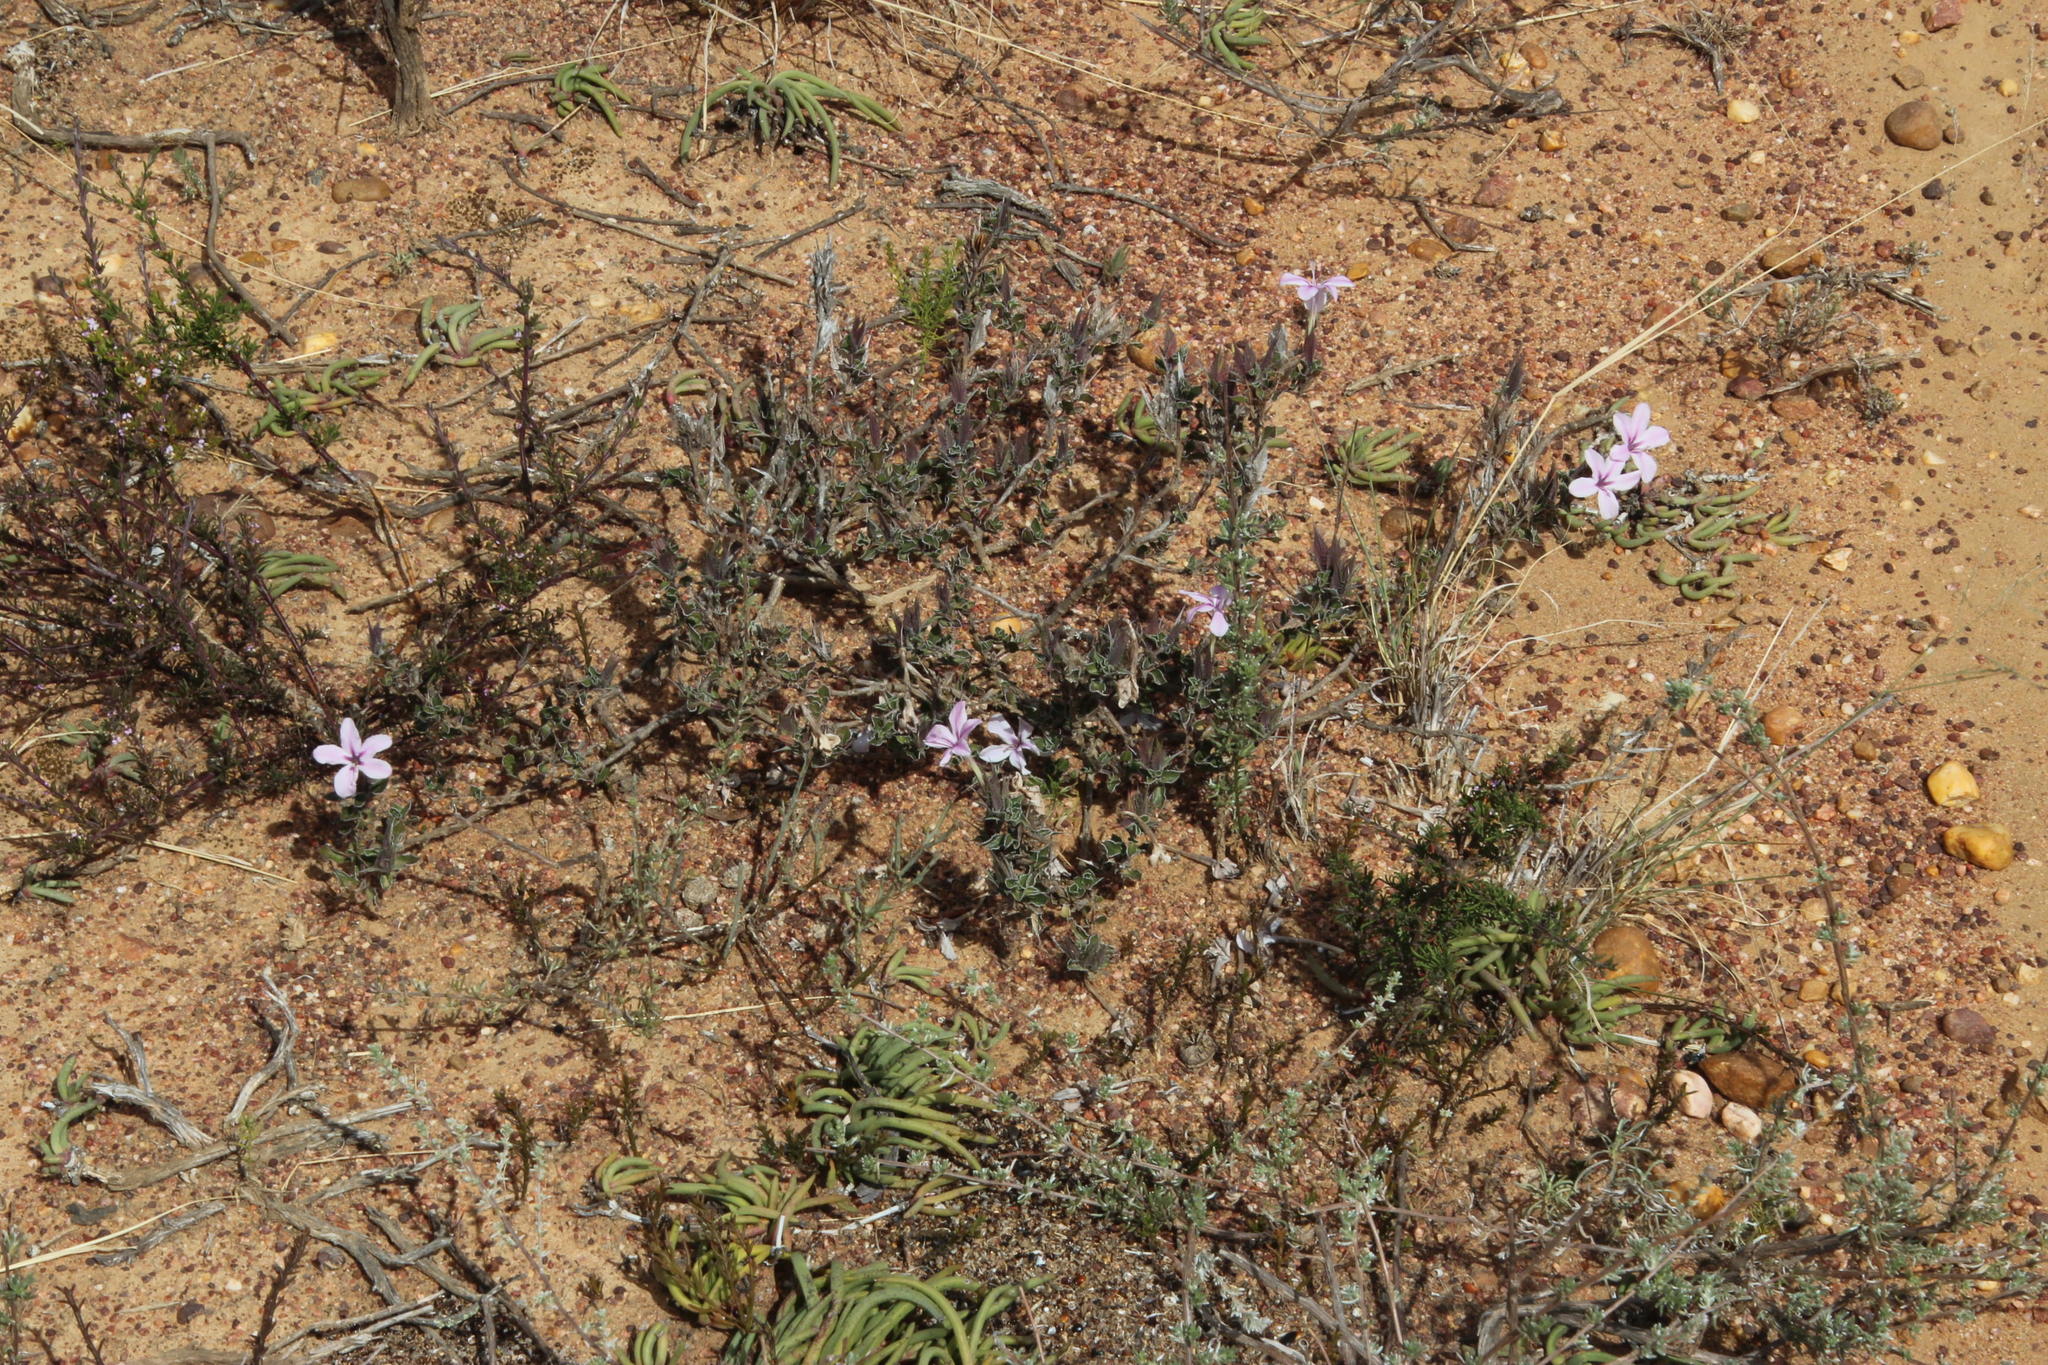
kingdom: Plantae
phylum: Tracheophyta
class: Magnoliopsida
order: Lamiales
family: Acanthaceae
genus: Barleria
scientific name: Barleria pungens
